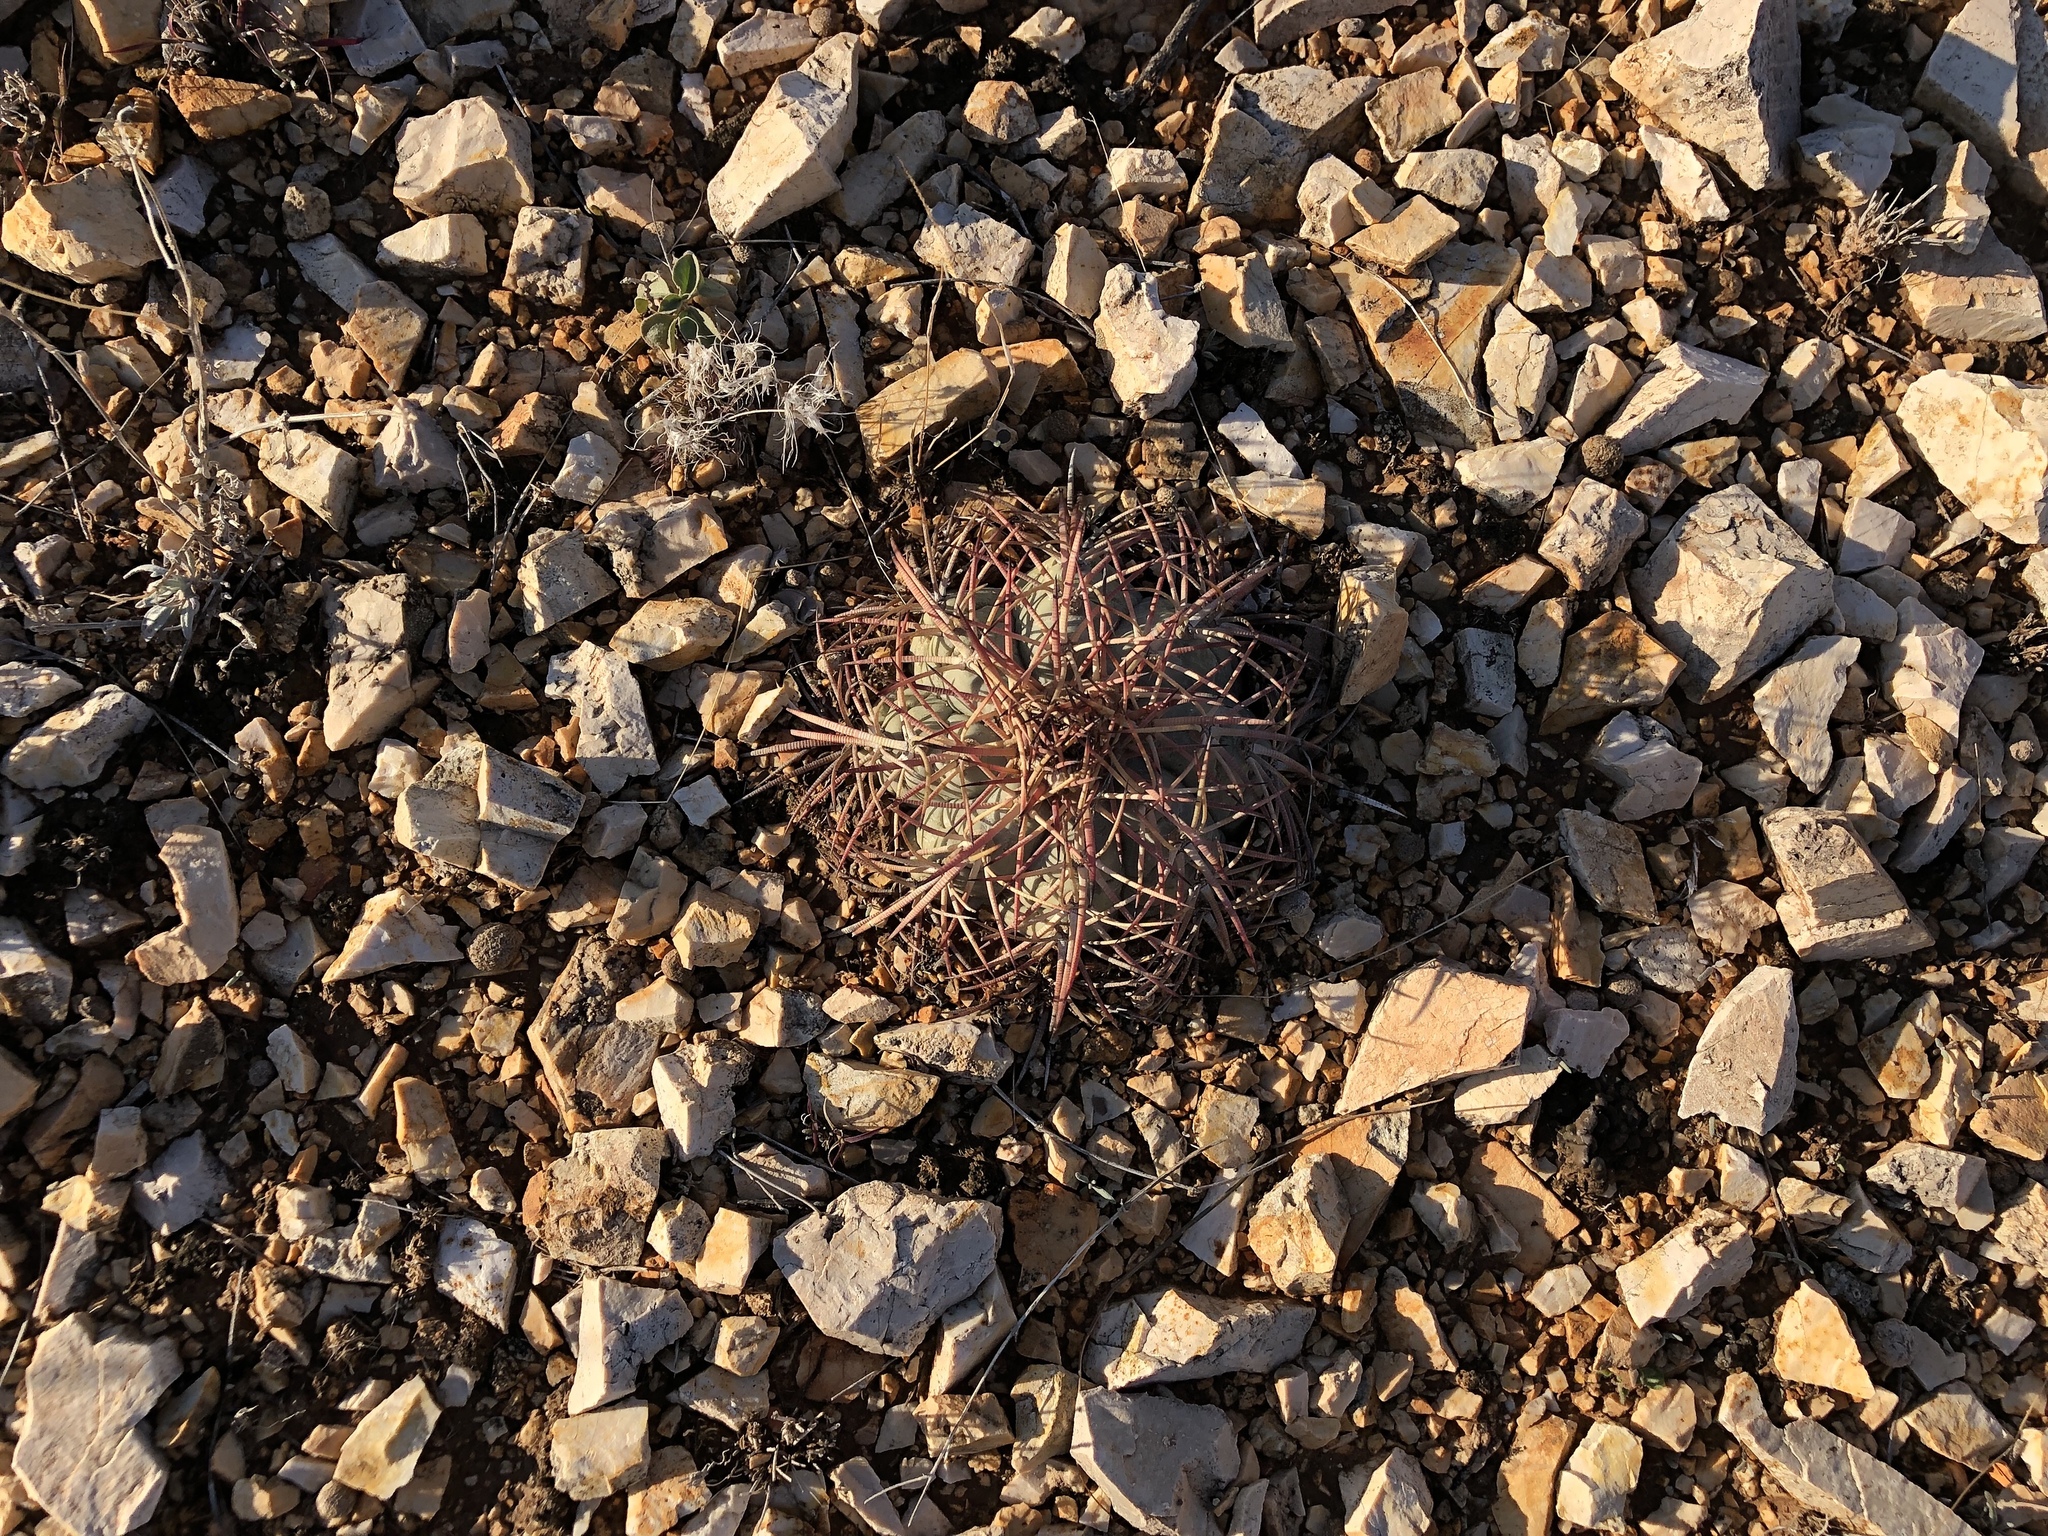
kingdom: Plantae
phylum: Tracheophyta
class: Magnoliopsida
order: Caryophyllales
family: Cactaceae
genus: Echinocactus
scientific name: Echinocactus horizonthalonius
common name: Devilshead
